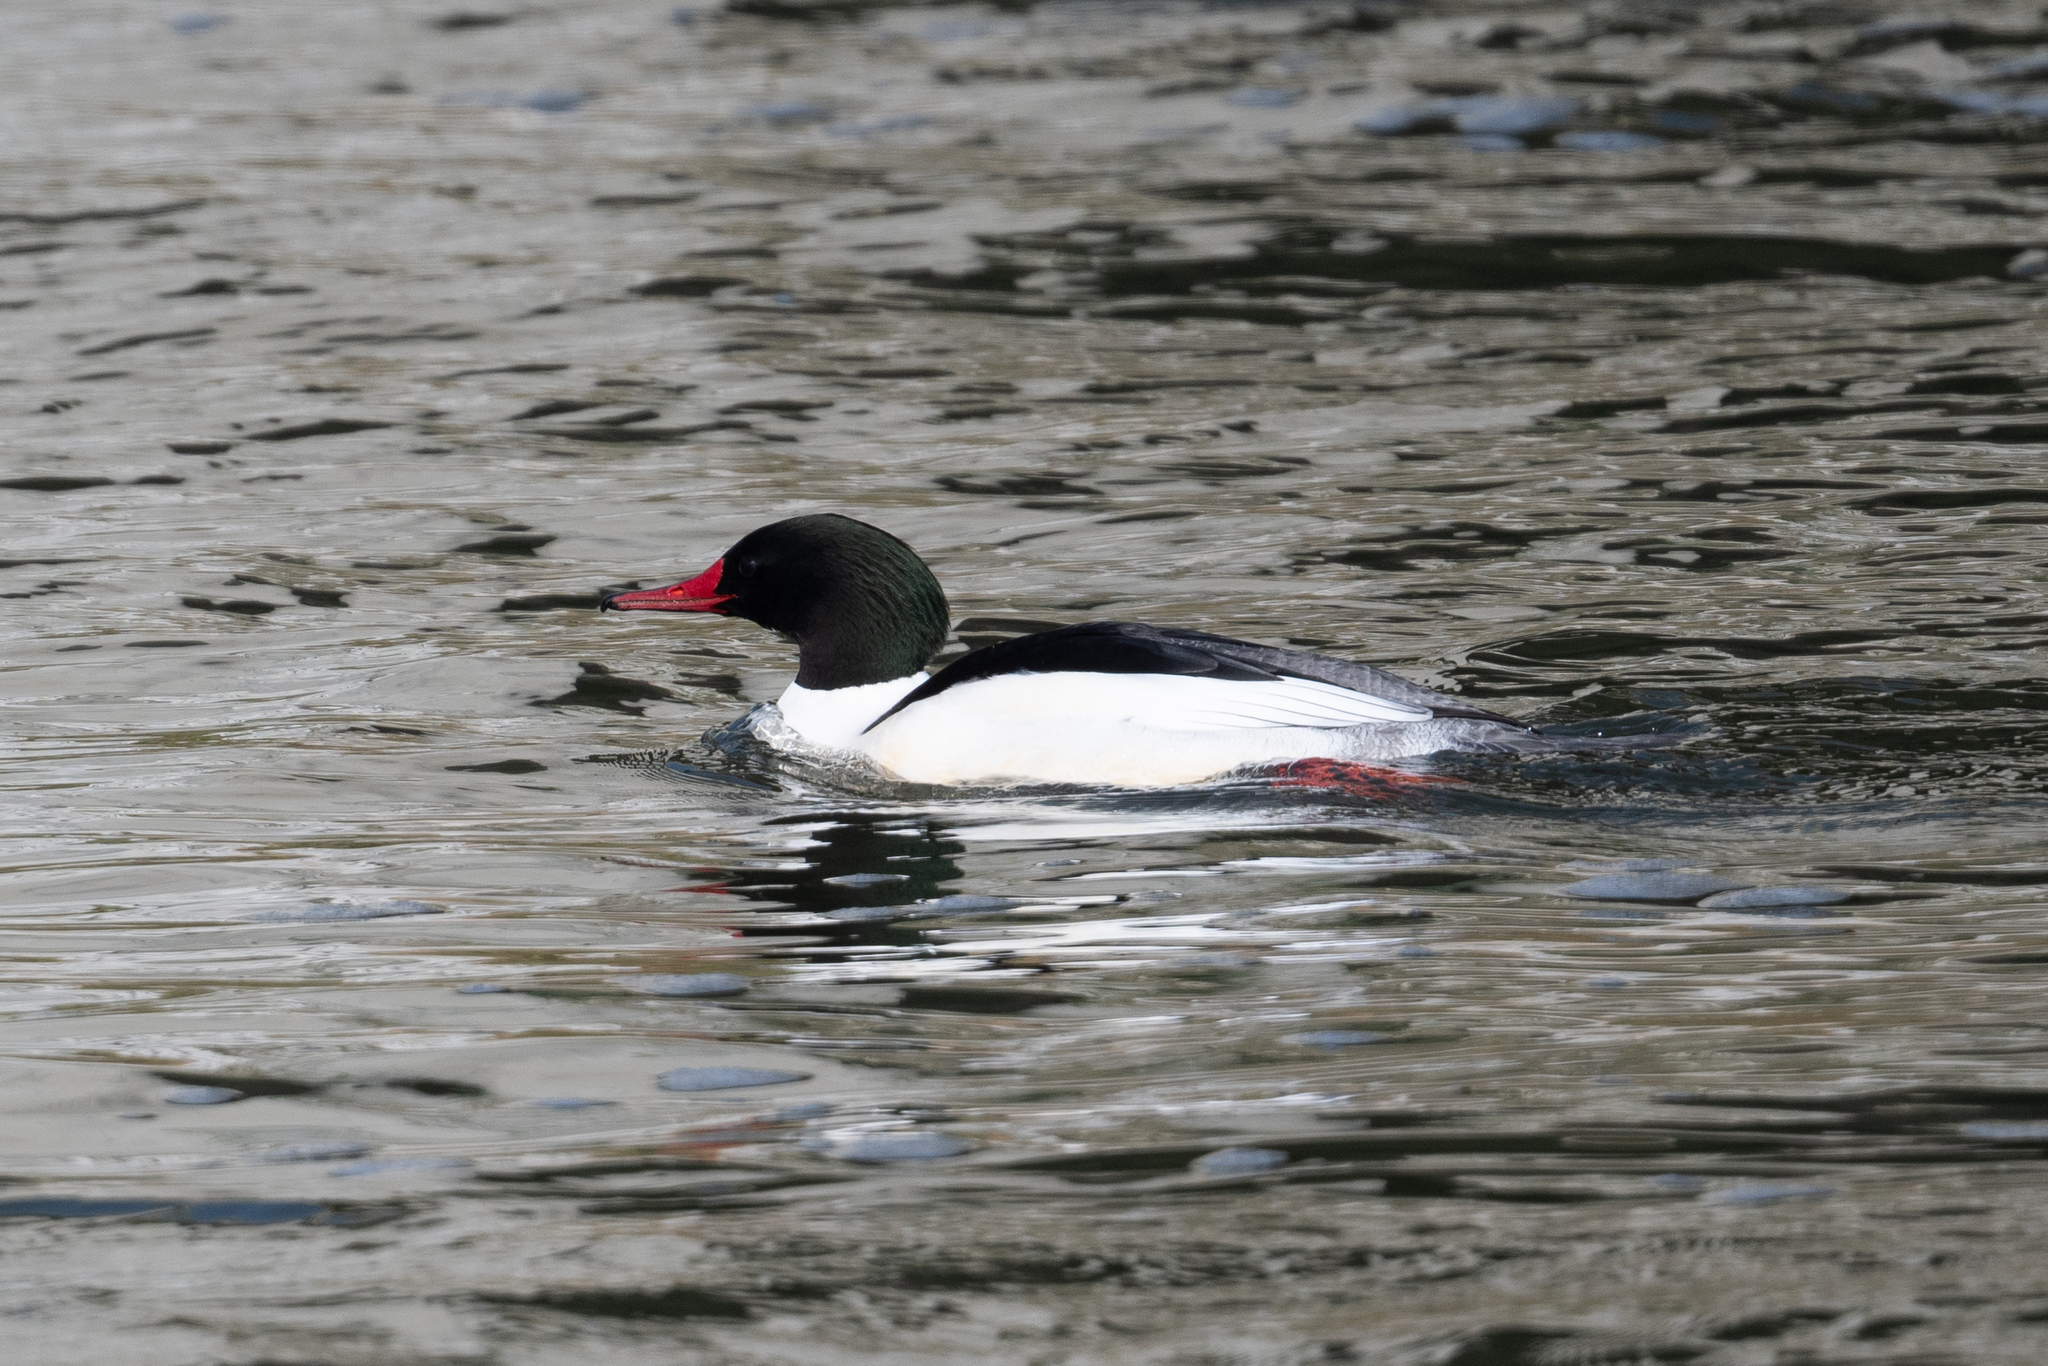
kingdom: Animalia
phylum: Chordata
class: Aves
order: Anseriformes
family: Anatidae
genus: Mergus
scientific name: Mergus merganser
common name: Common merganser
